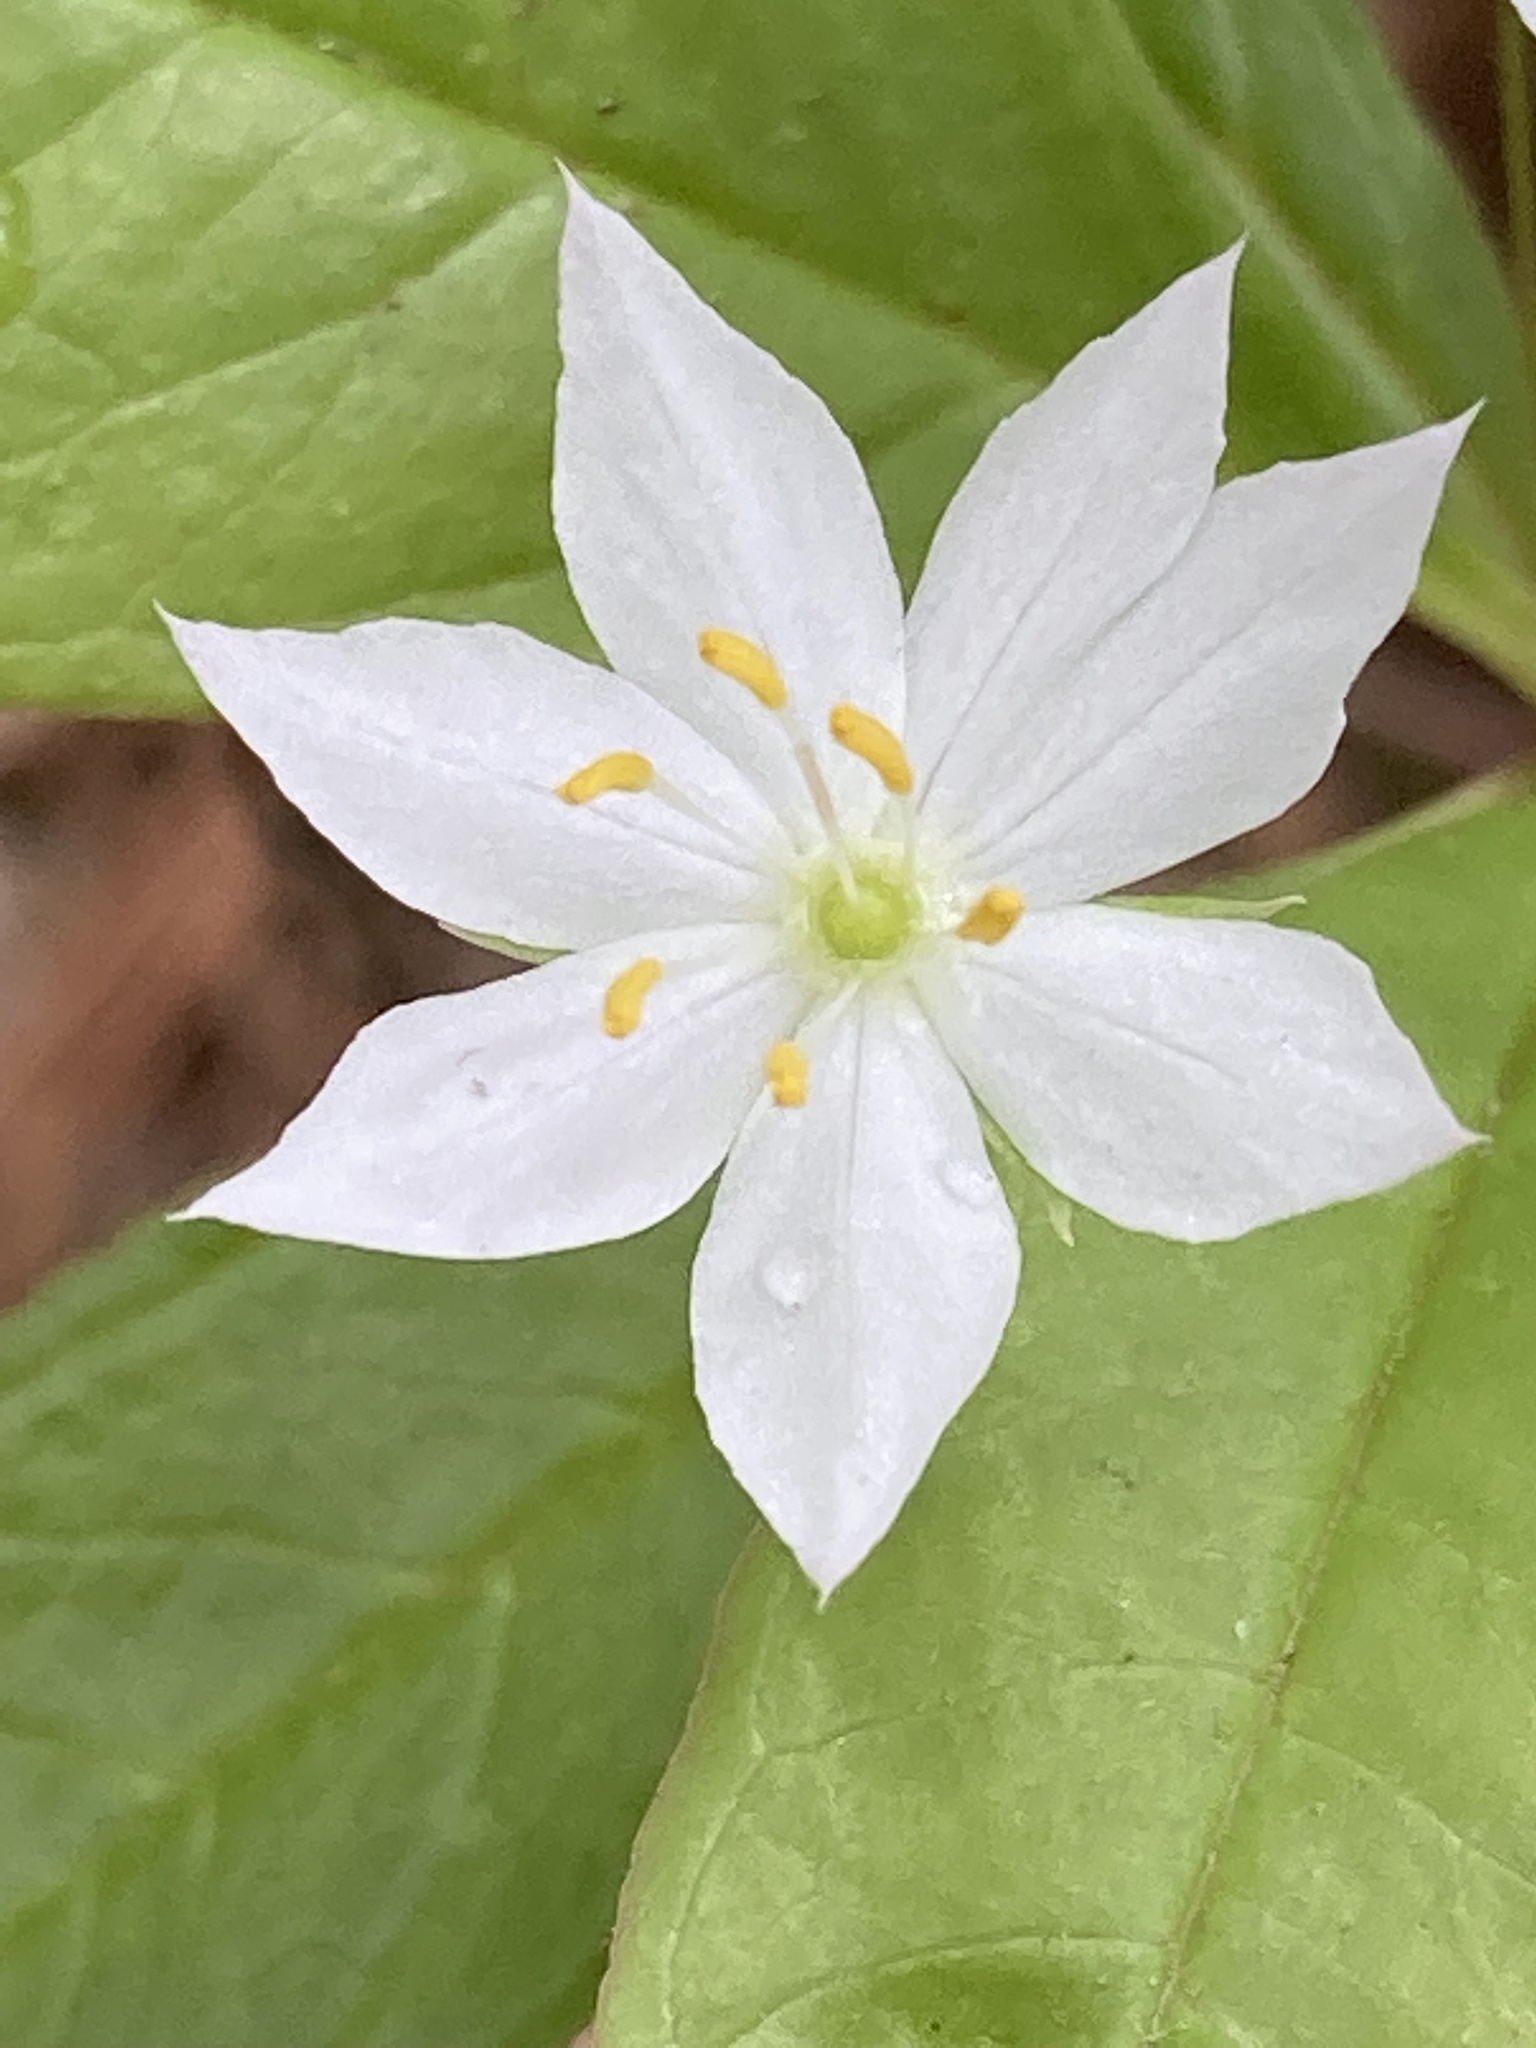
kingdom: Plantae
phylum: Tracheophyta
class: Magnoliopsida
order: Ericales
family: Primulaceae
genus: Lysimachia
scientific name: Lysimachia borealis
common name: American starflower
